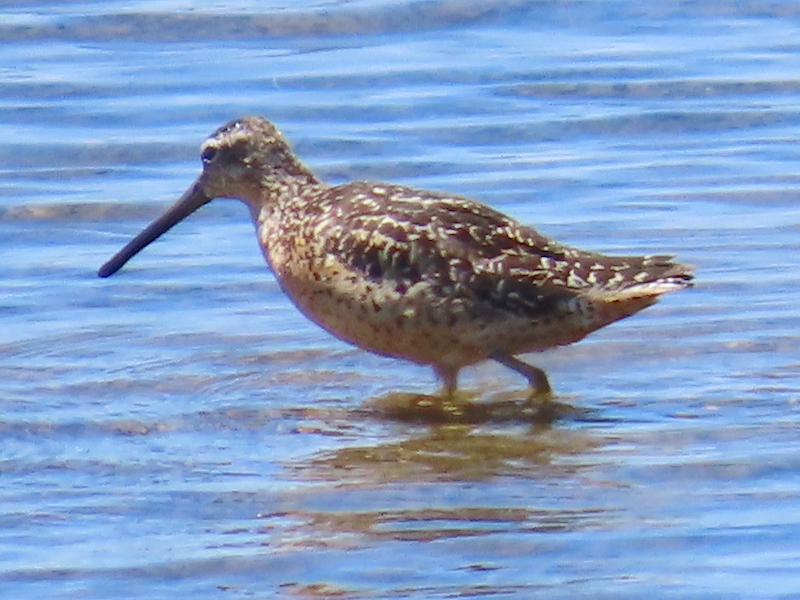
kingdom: Animalia
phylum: Chordata
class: Aves
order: Charadriiformes
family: Scolopacidae
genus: Limnodromus
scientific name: Limnodromus griseus
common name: Short-billed dowitcher
